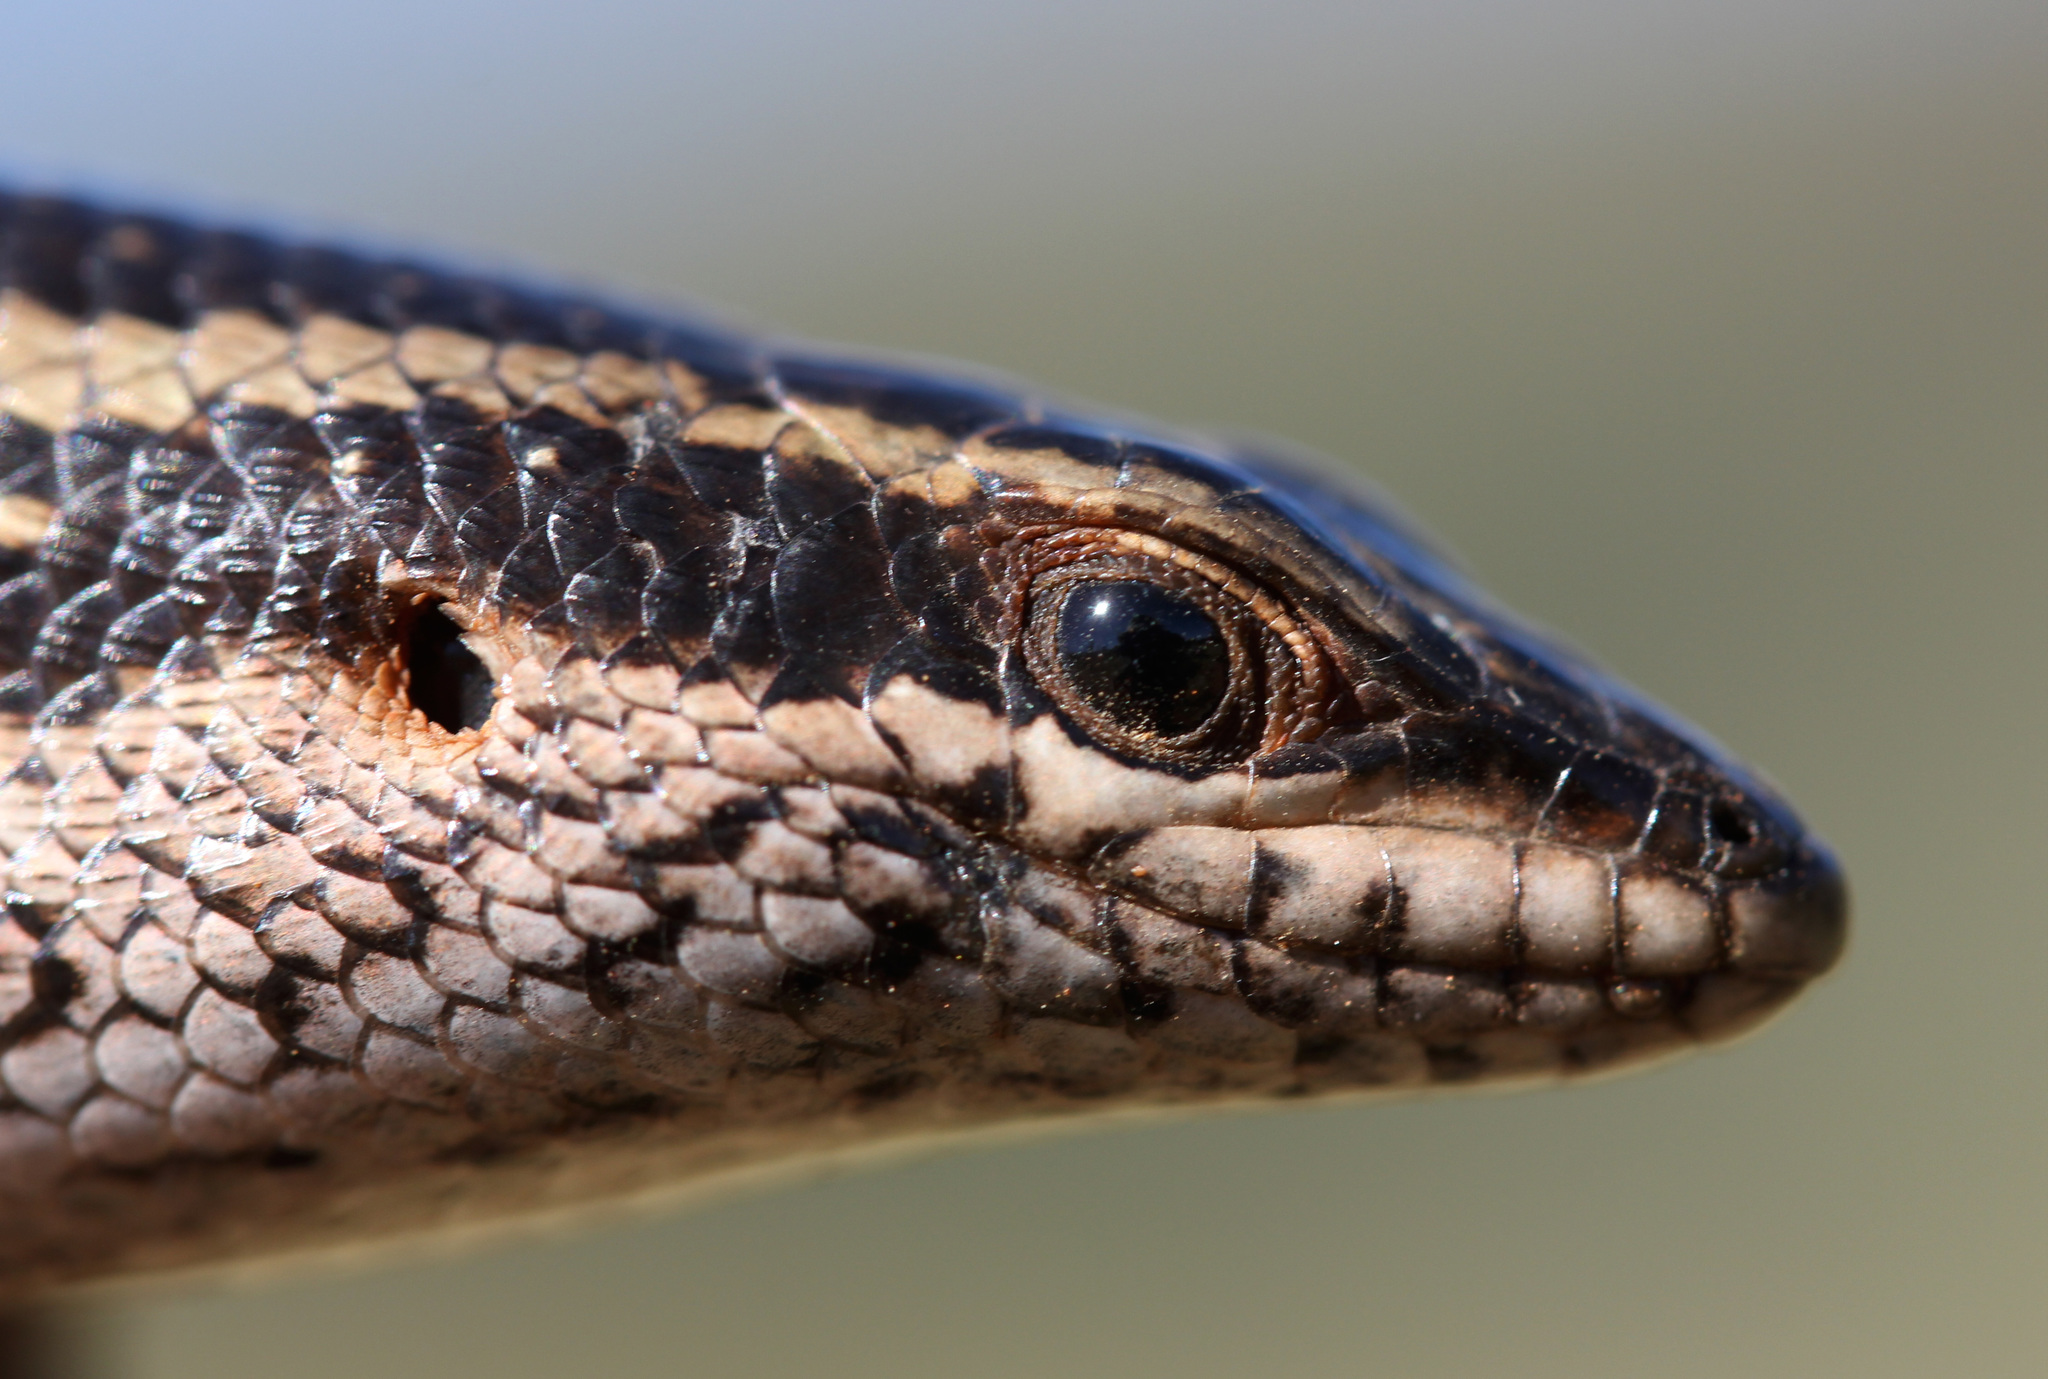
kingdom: Animalia
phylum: Chordata
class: Squamata
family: Scincidae
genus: Trachylepis
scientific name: Trachylepis spilogaster
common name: Kalahari tree skink
